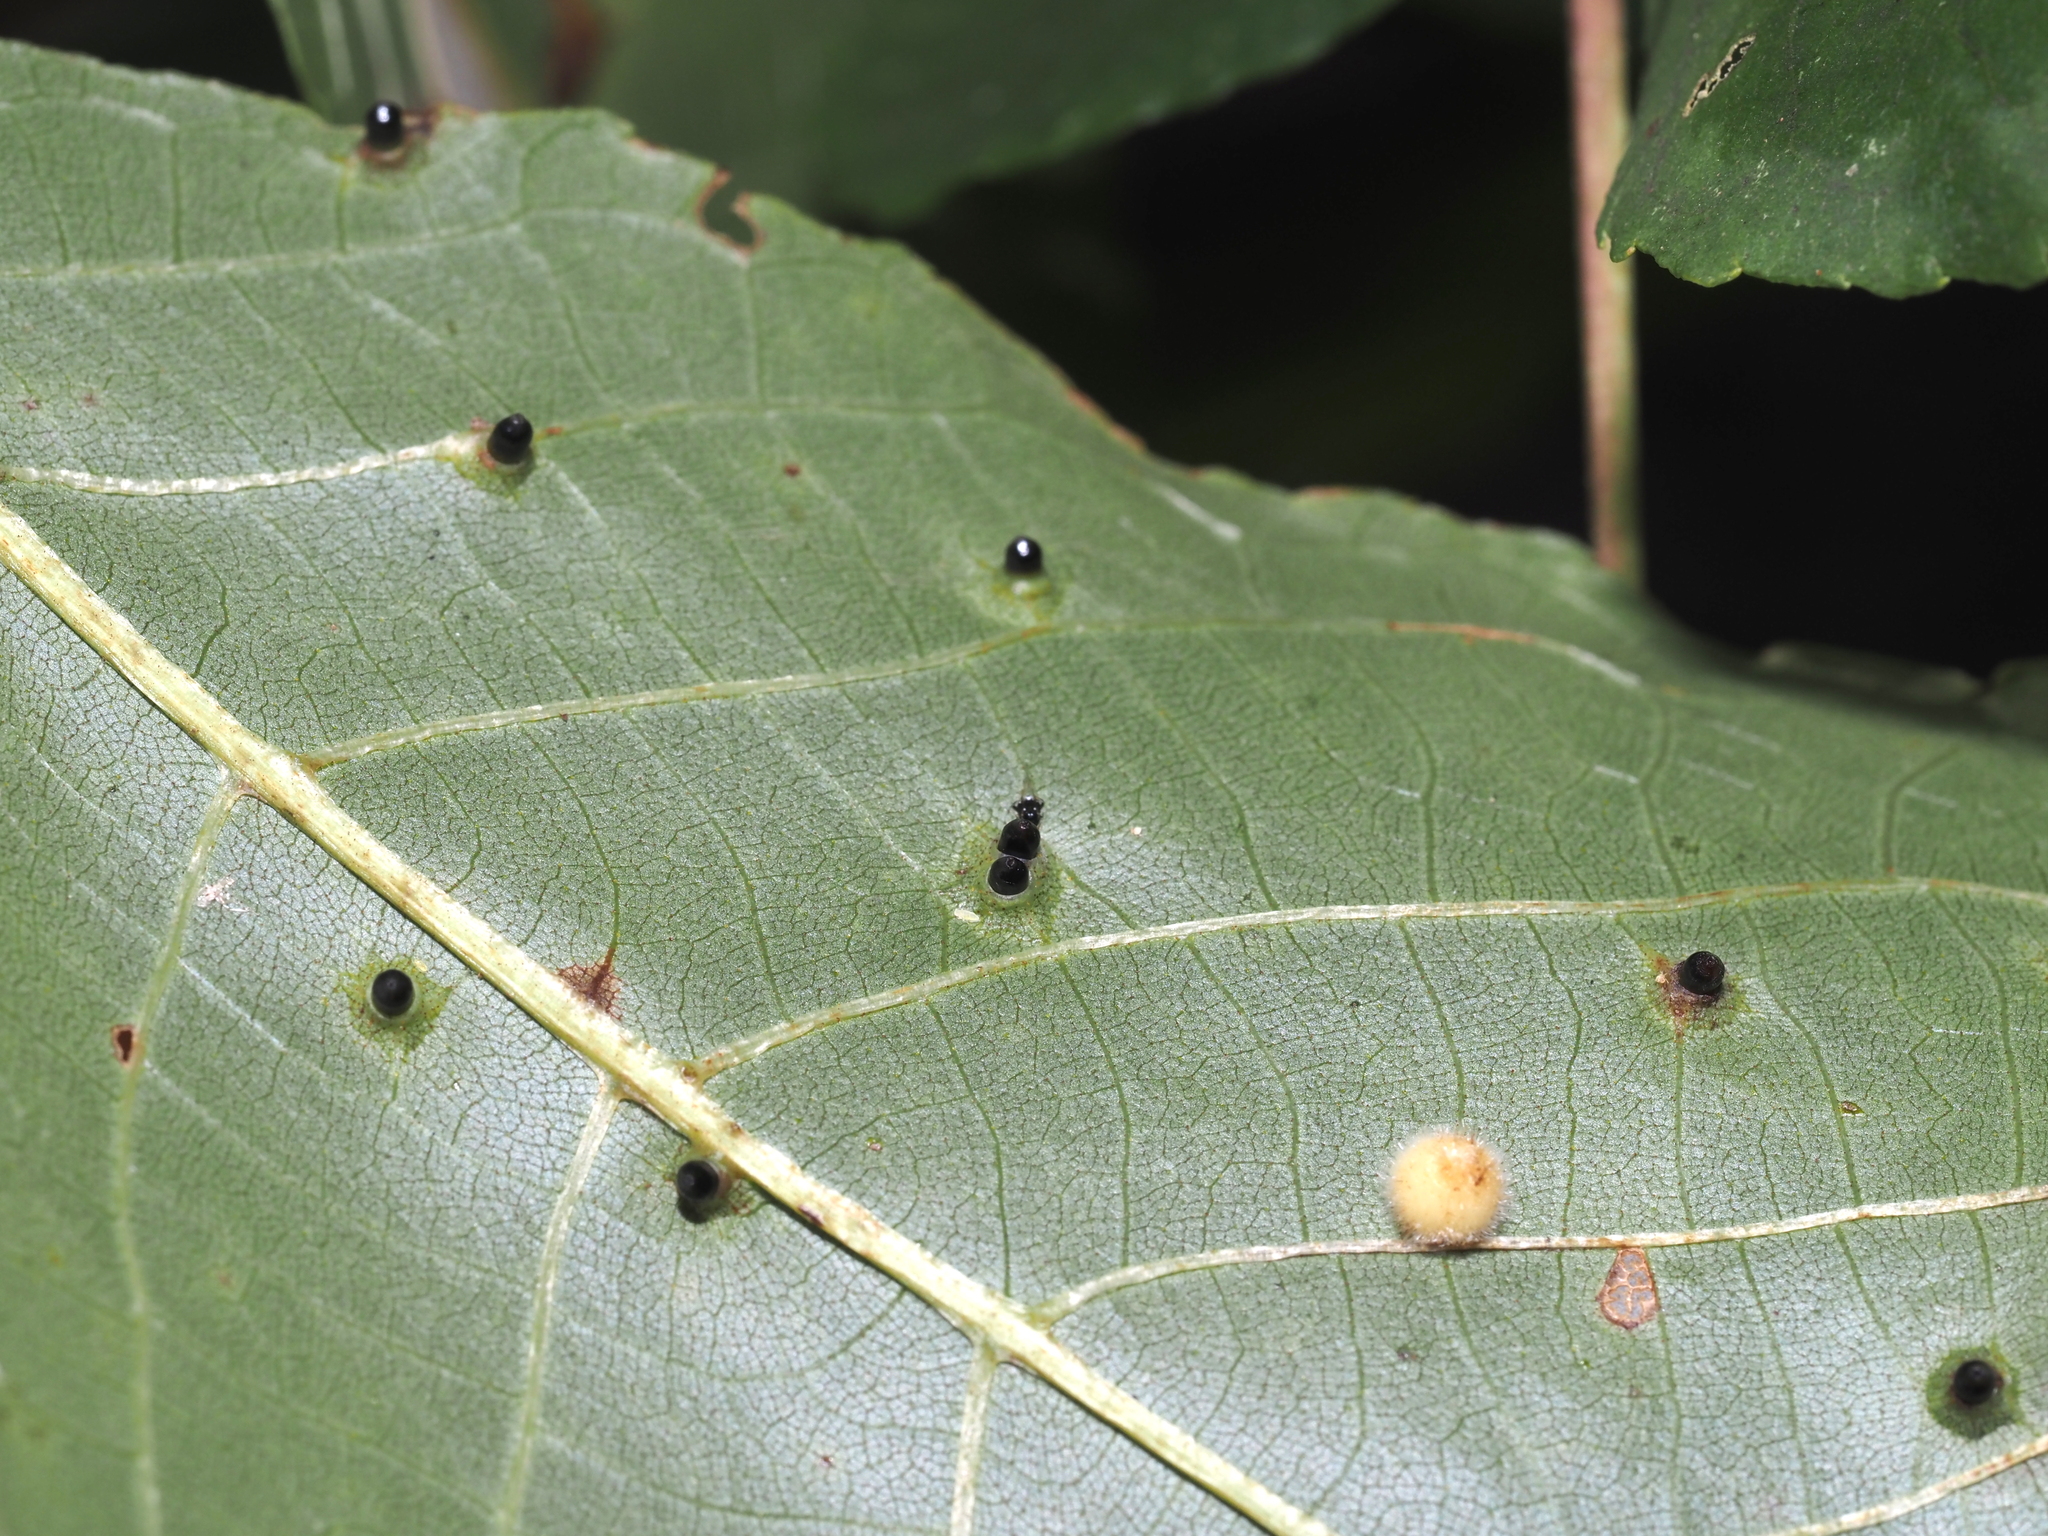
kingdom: Animalia
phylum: Arthropoda
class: Insecta
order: Diptera
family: Cecidomyiidae
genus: Caryomyia
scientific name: Caryomyia tubicola
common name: Hickory bullet gall midge
